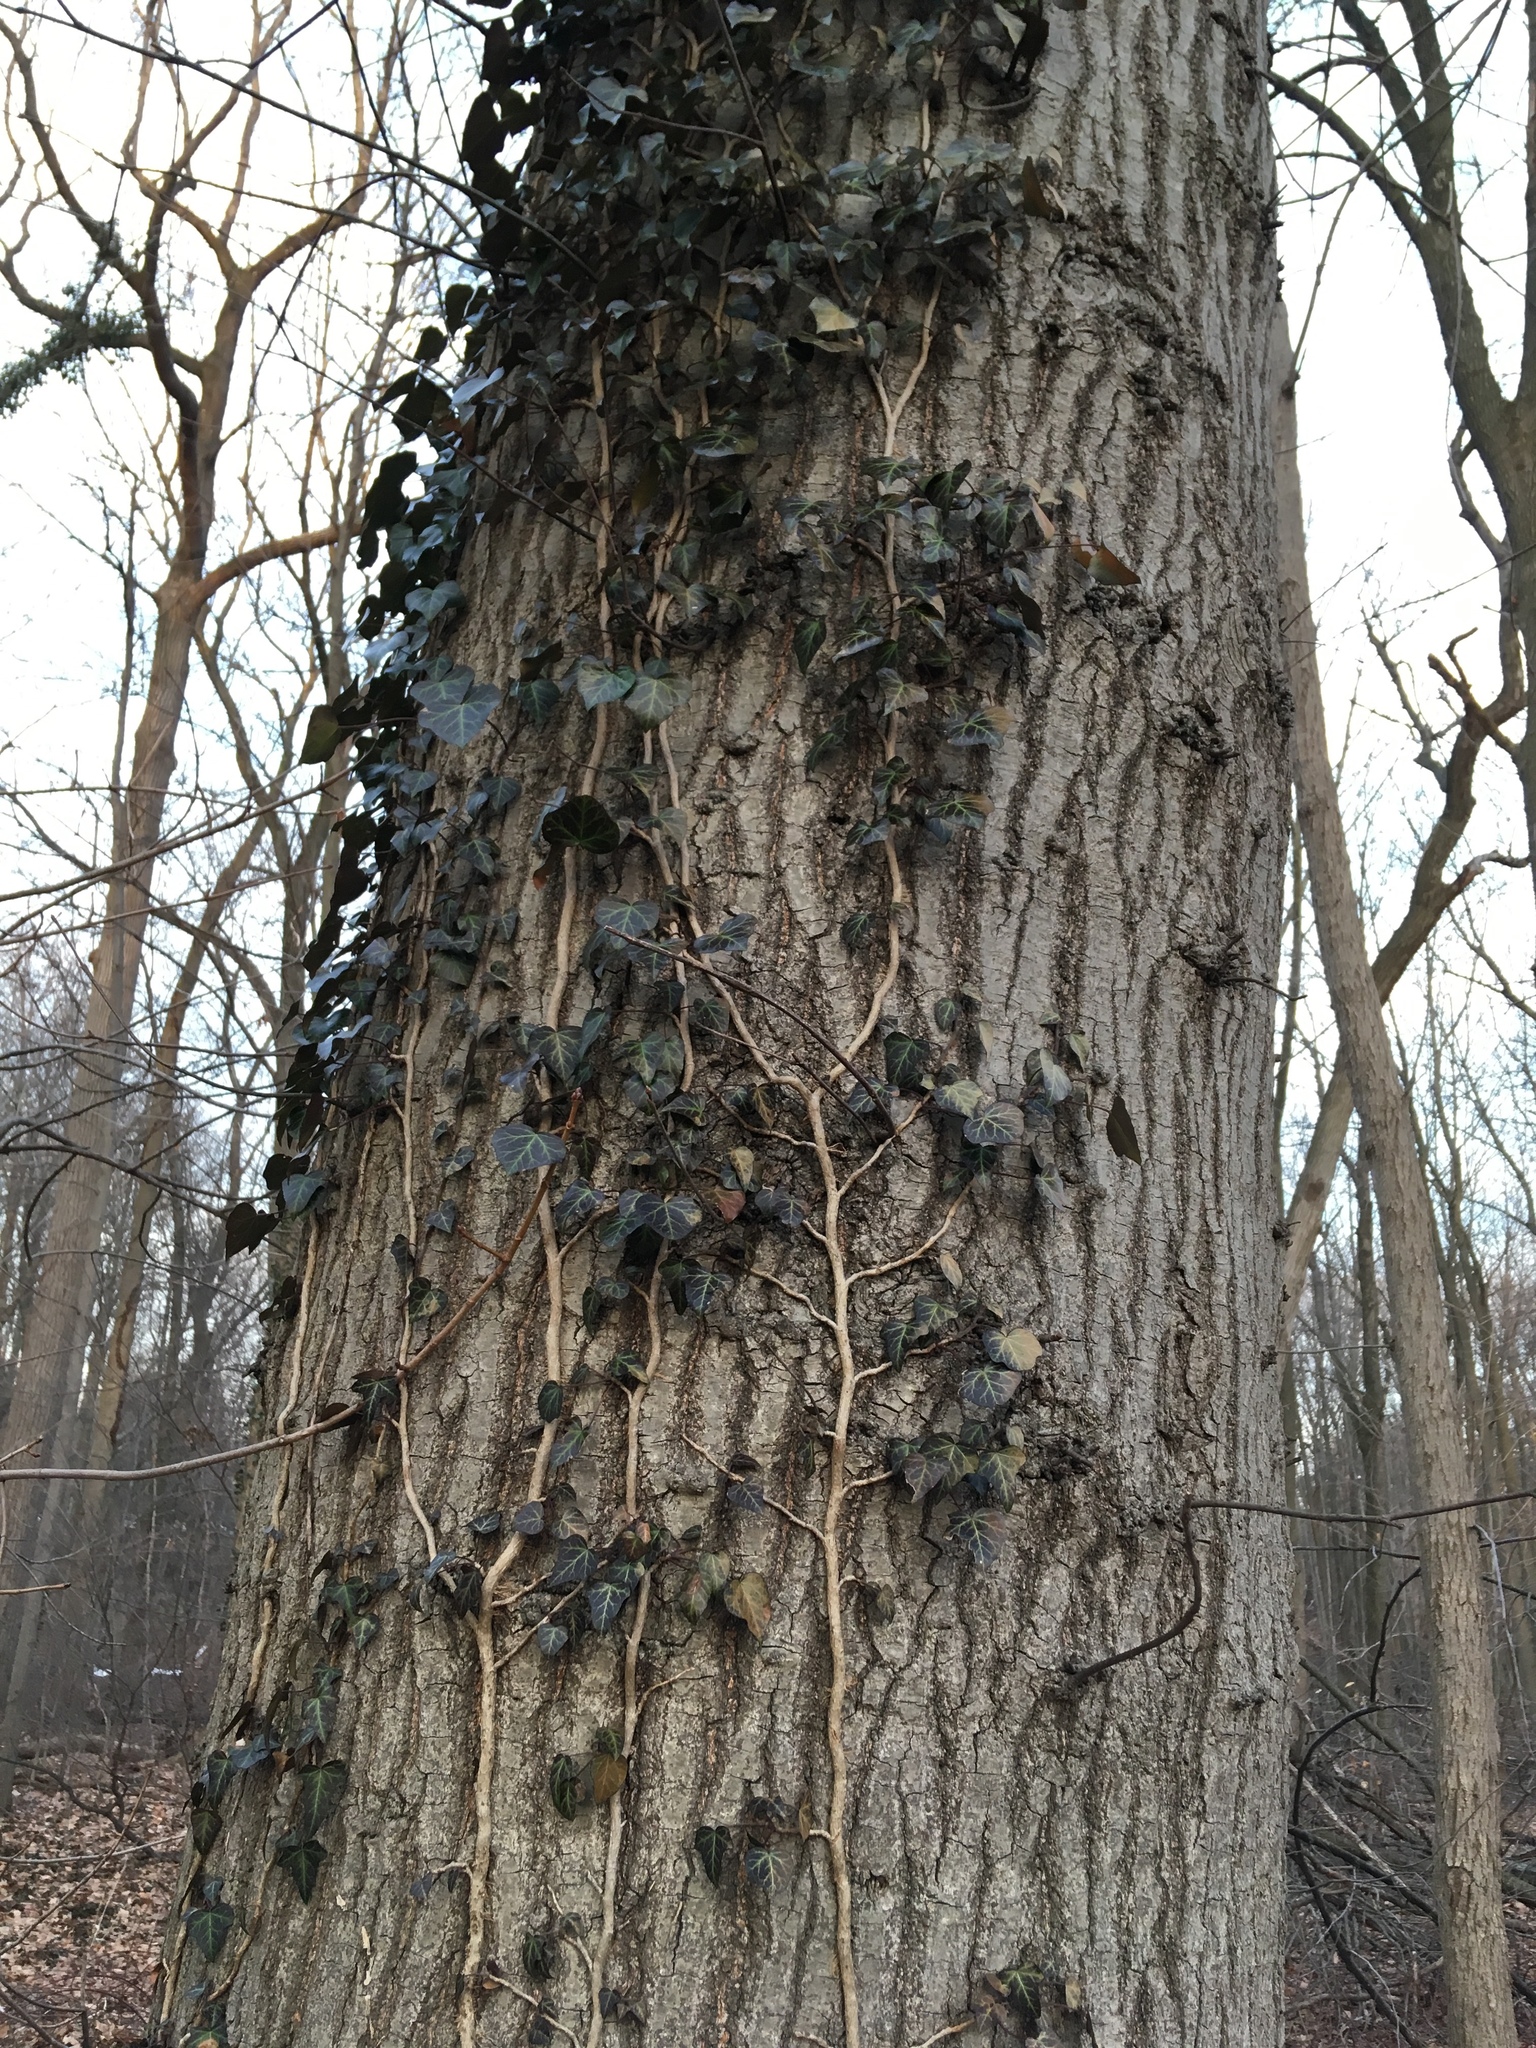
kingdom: Plantae
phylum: Tracheophyta
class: Magnoliopsida
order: Apiales
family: Araliaceae
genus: Hedera
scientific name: Hedera helix
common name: Ivy
